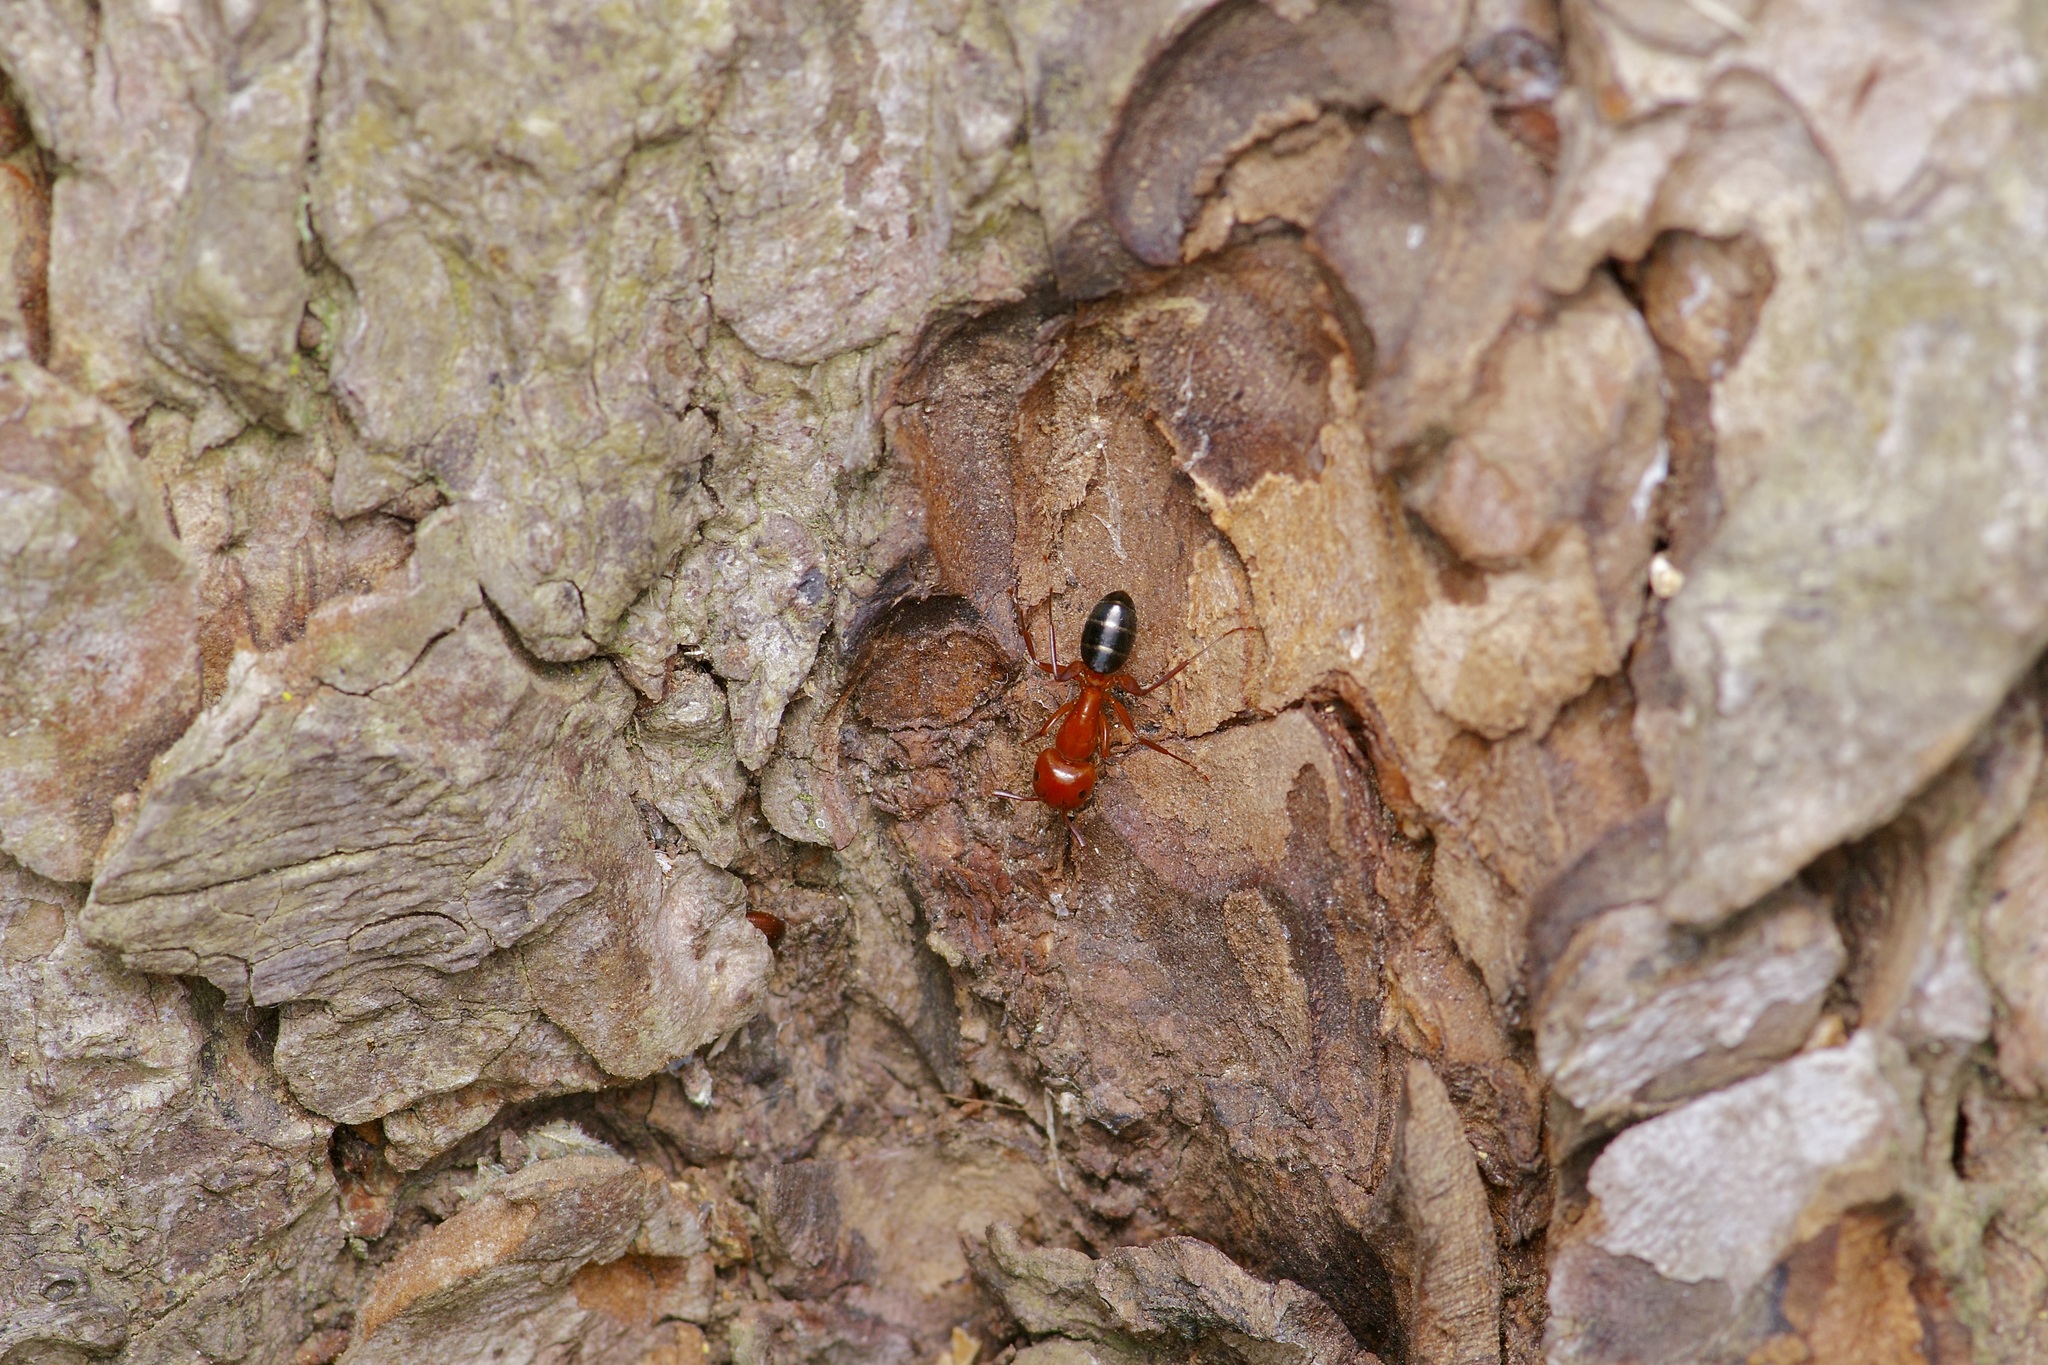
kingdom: Animalia
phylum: Arthropoda
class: Insecta
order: Hymenoptera
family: Formicidae
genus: Camponotus
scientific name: Camponotus decipiens
